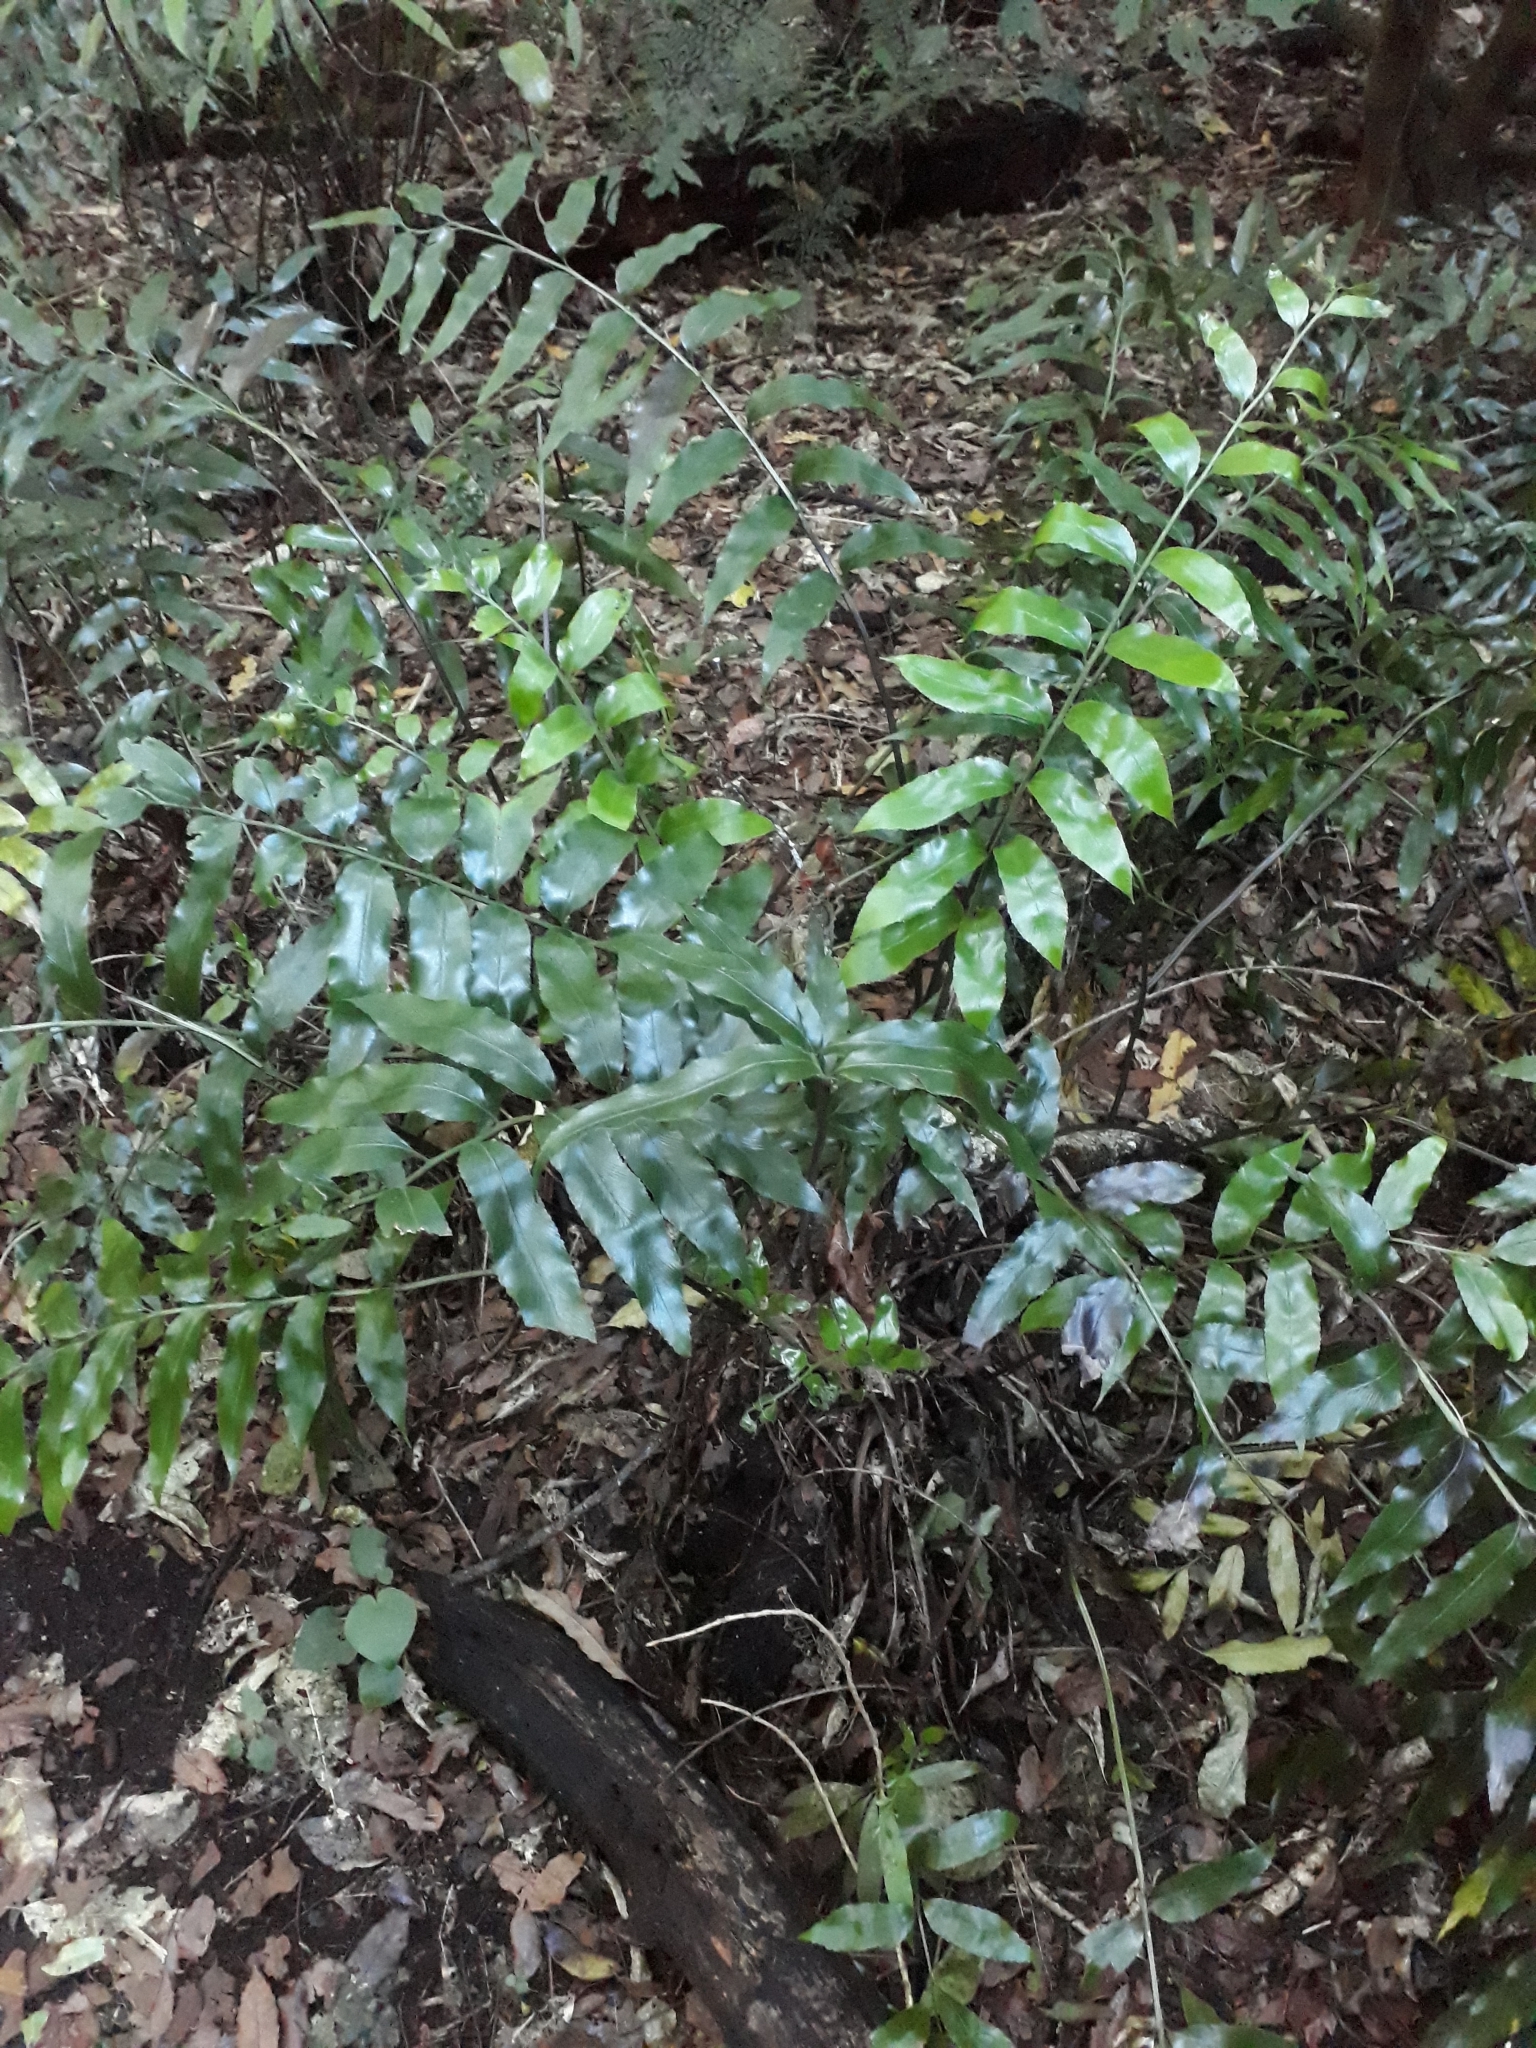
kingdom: Plantae
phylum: Tracheophyta
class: Polypodiopsida
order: Polypodiales
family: Aspleniaceae
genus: Asplenium
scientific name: Asplenium oblongifolium
